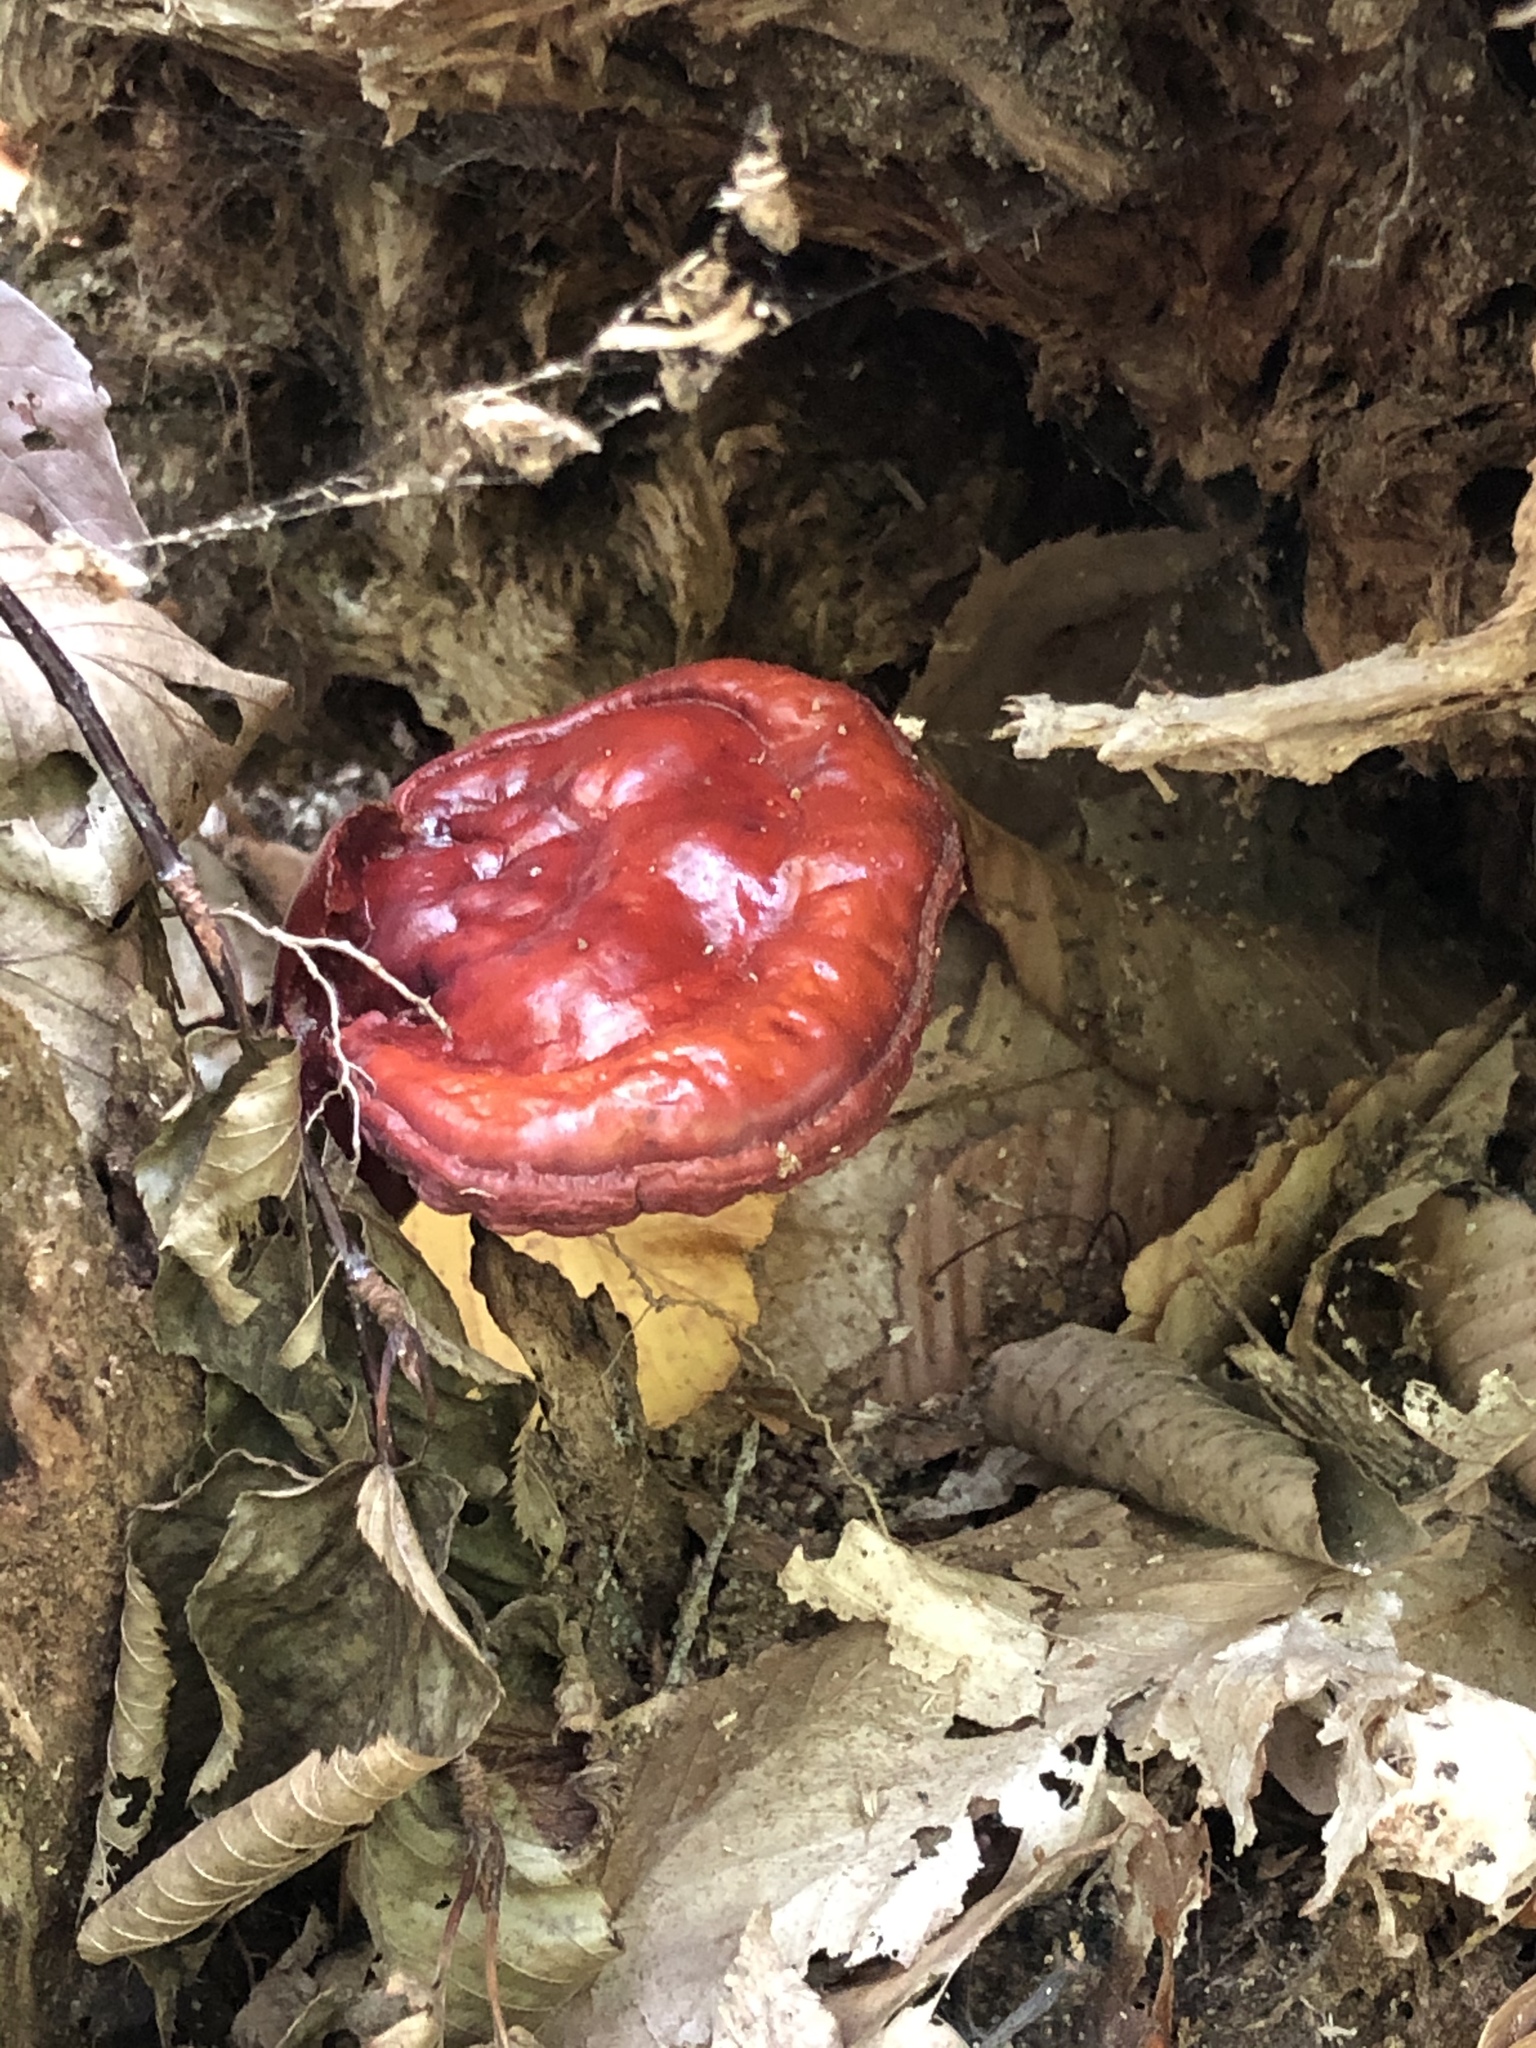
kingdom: Fungi
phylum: Basidiomycota
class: Agaricomycetes
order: Polyporales
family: Polyporaceae
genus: Ganoderma
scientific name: Ganoderma tsugae
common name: Hemlock varnish shelf
